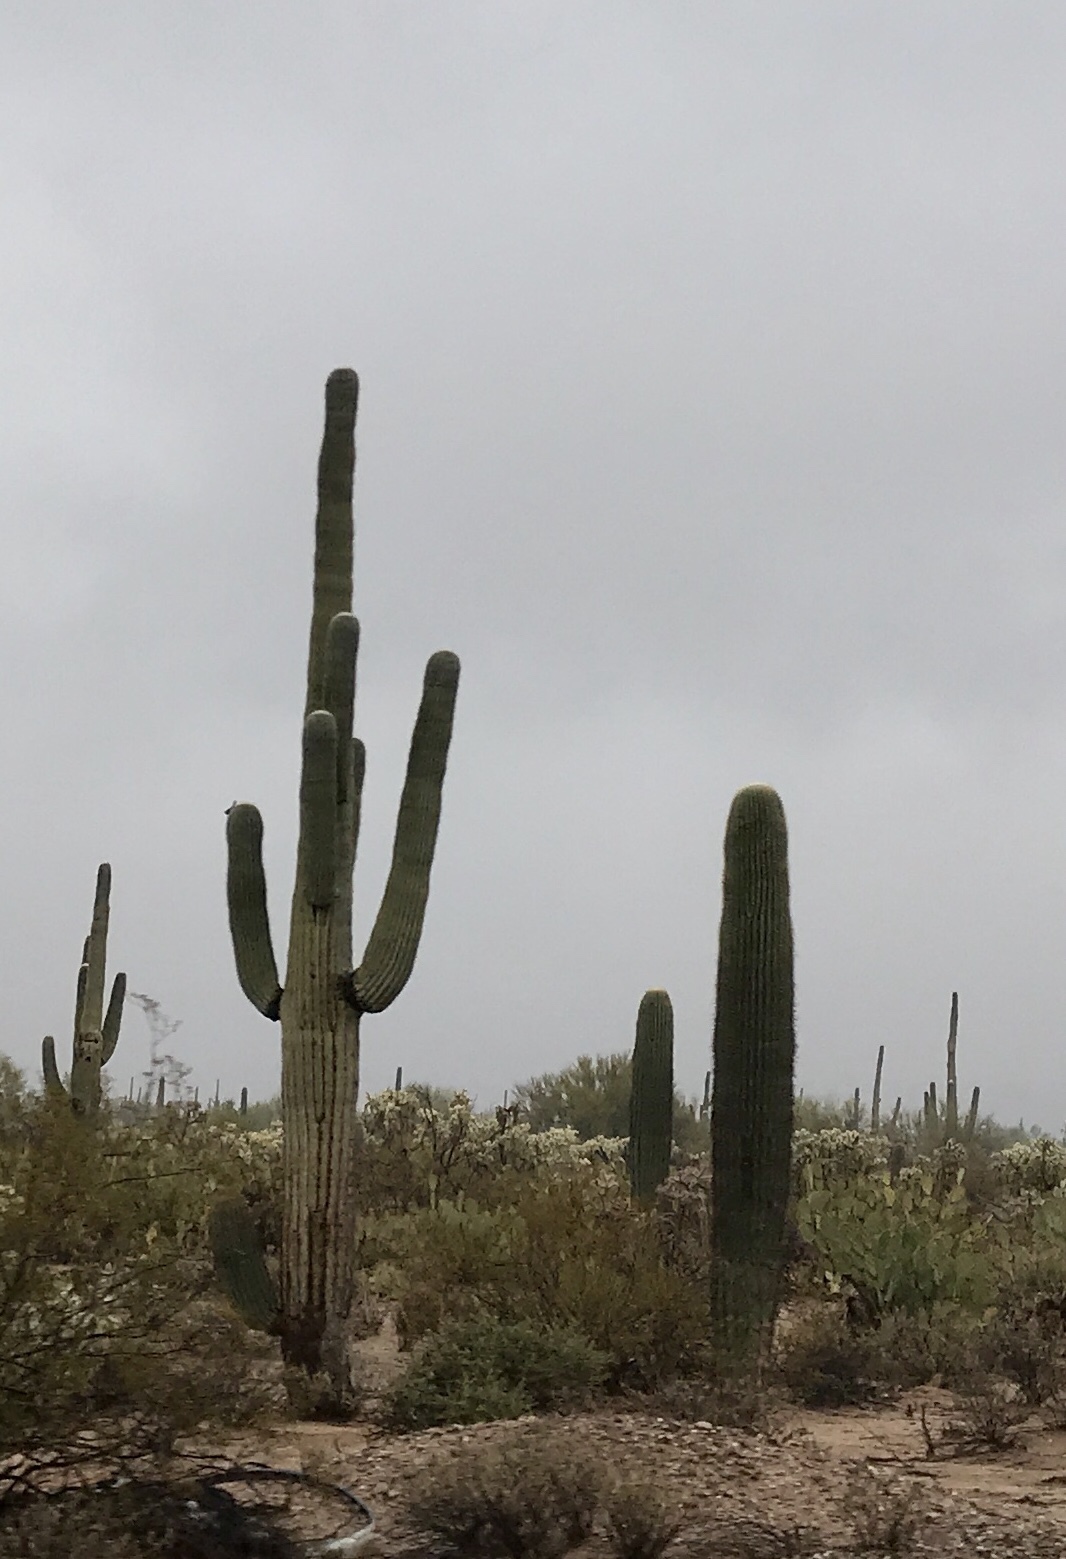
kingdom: Plantae
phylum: Tracheophyta
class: Magnoliopsida
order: Caryophyllales
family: Cactaceae
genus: Carnegiea
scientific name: Carnegiea gigantea
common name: Saguaro
